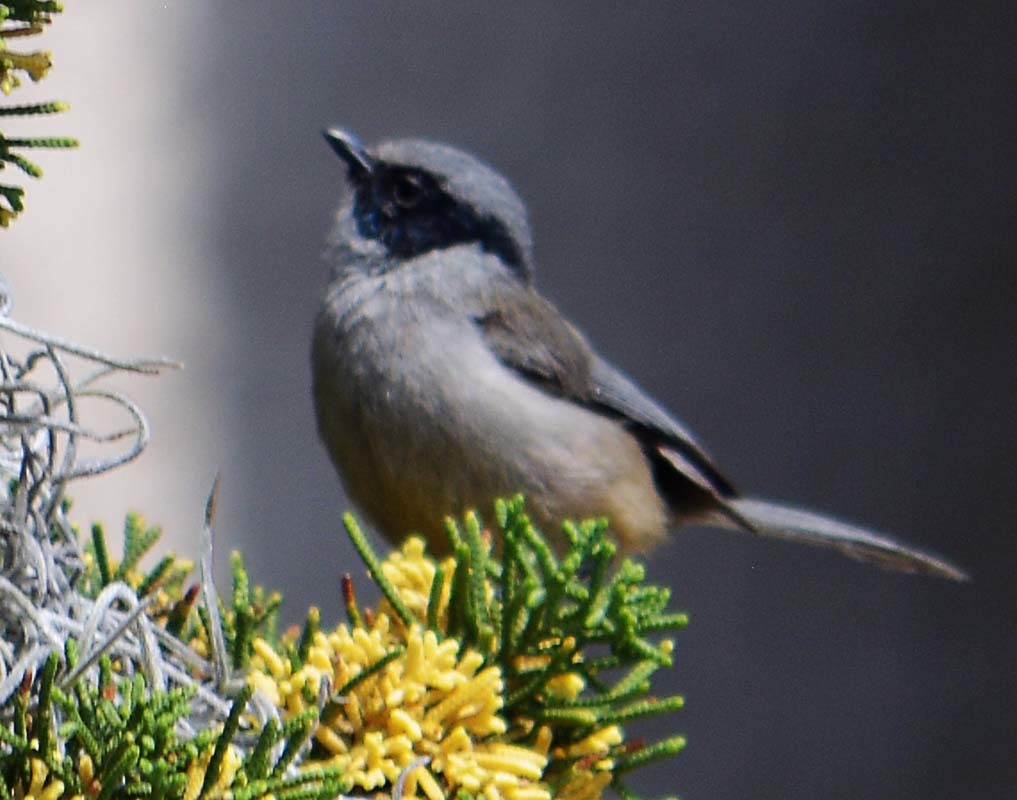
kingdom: Animalia
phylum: Chordata
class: Aves
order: Passeriformes
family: Aegithalidae
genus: Psaltriparus
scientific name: Psaltriparus minimus
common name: American bushtit
